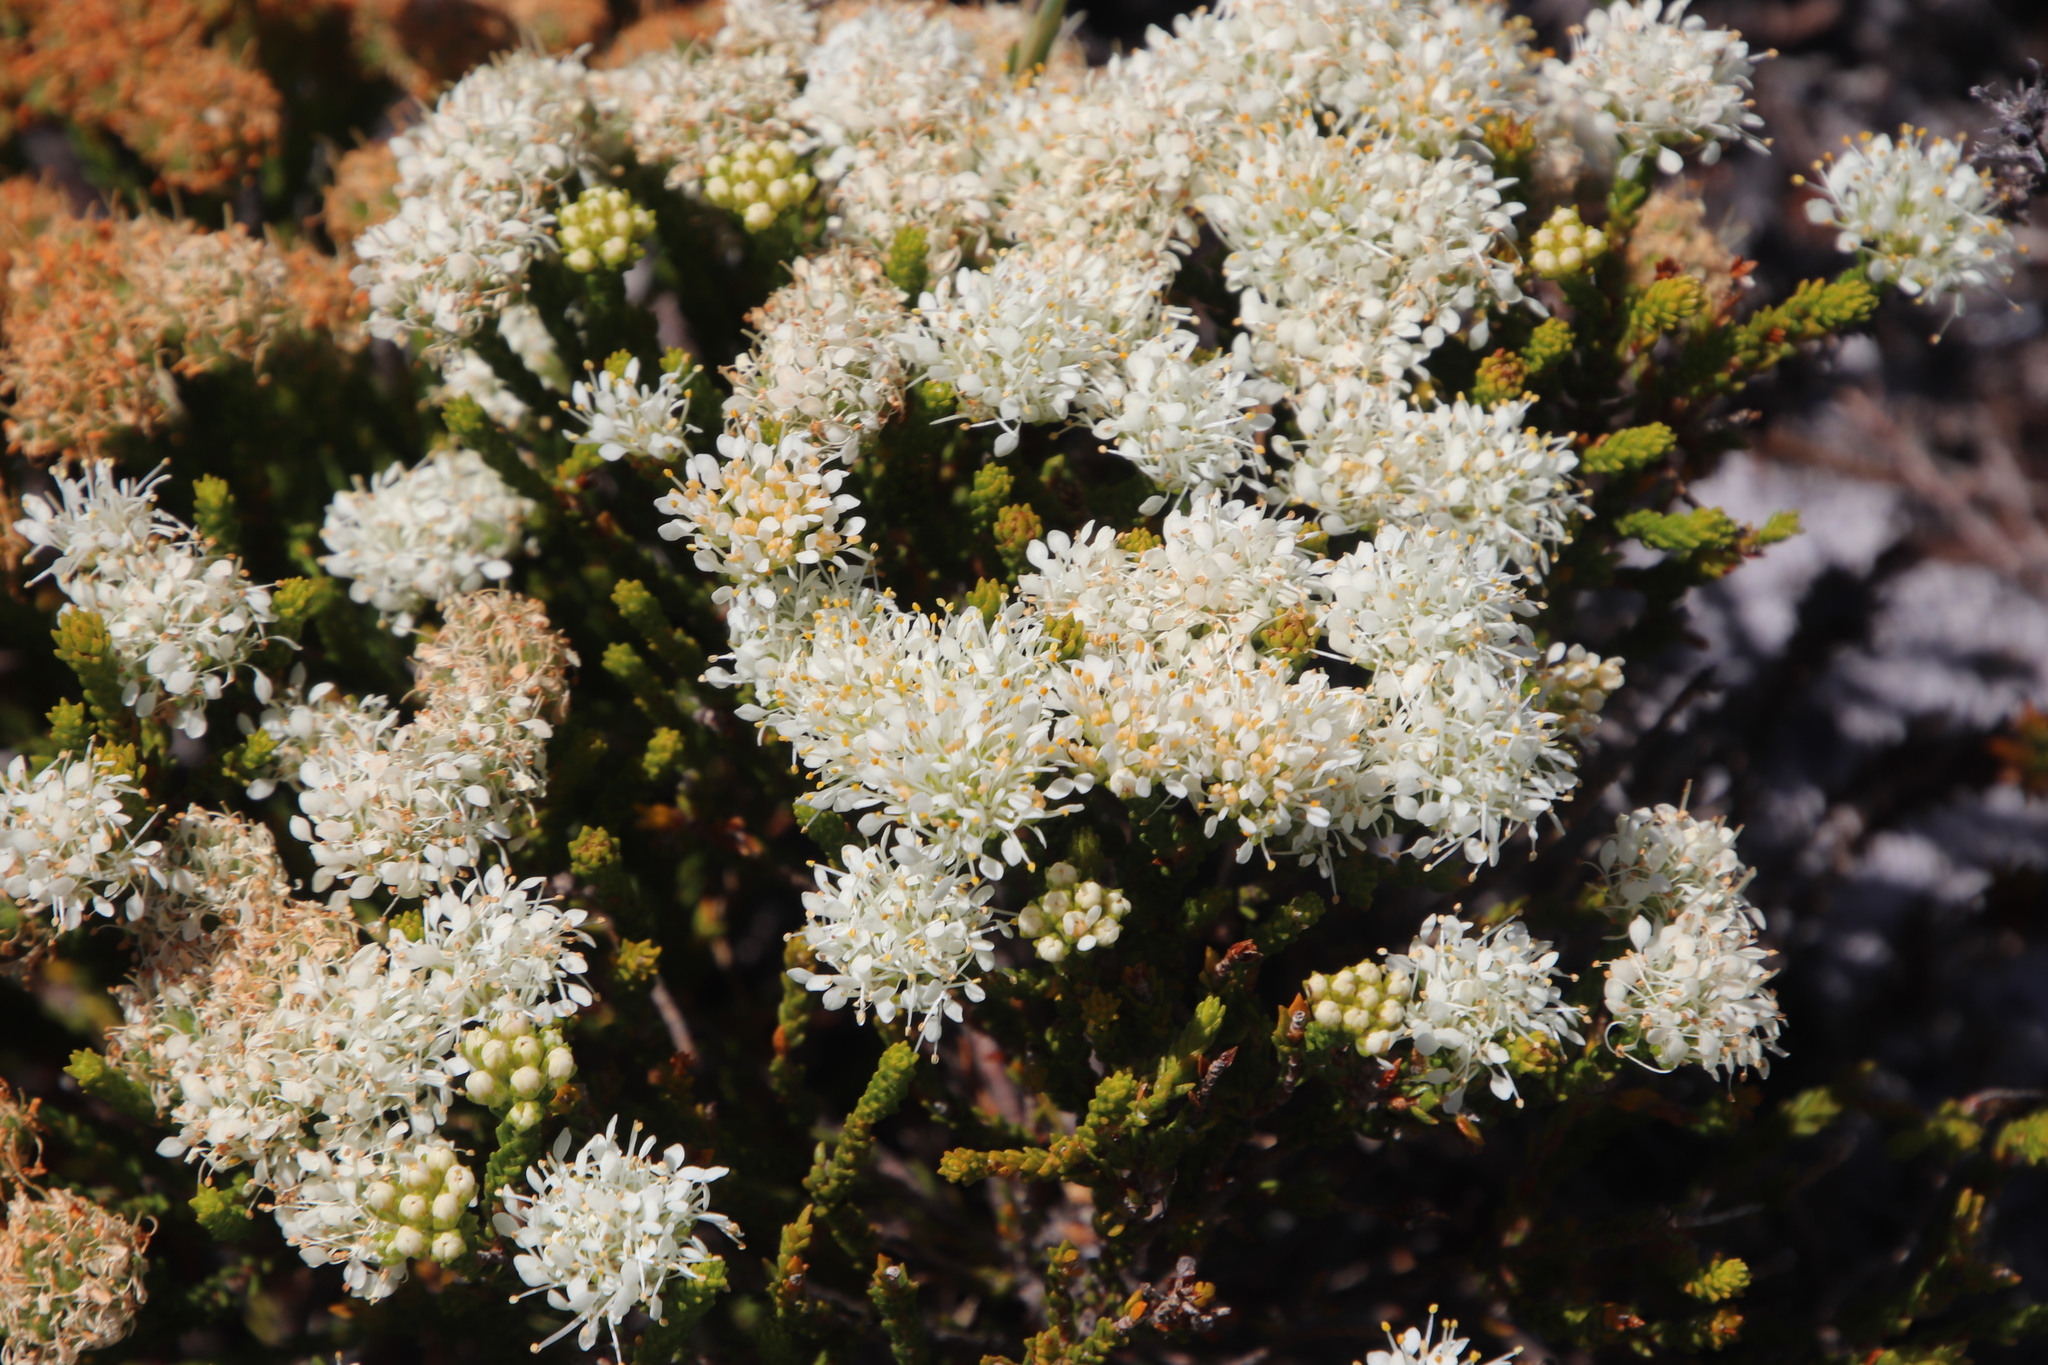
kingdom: Plantae
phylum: Tracheophyta
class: Magnoliopsida
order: Sapindales
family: Rutaceae
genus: Agathosma
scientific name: Agathosma imbricata
